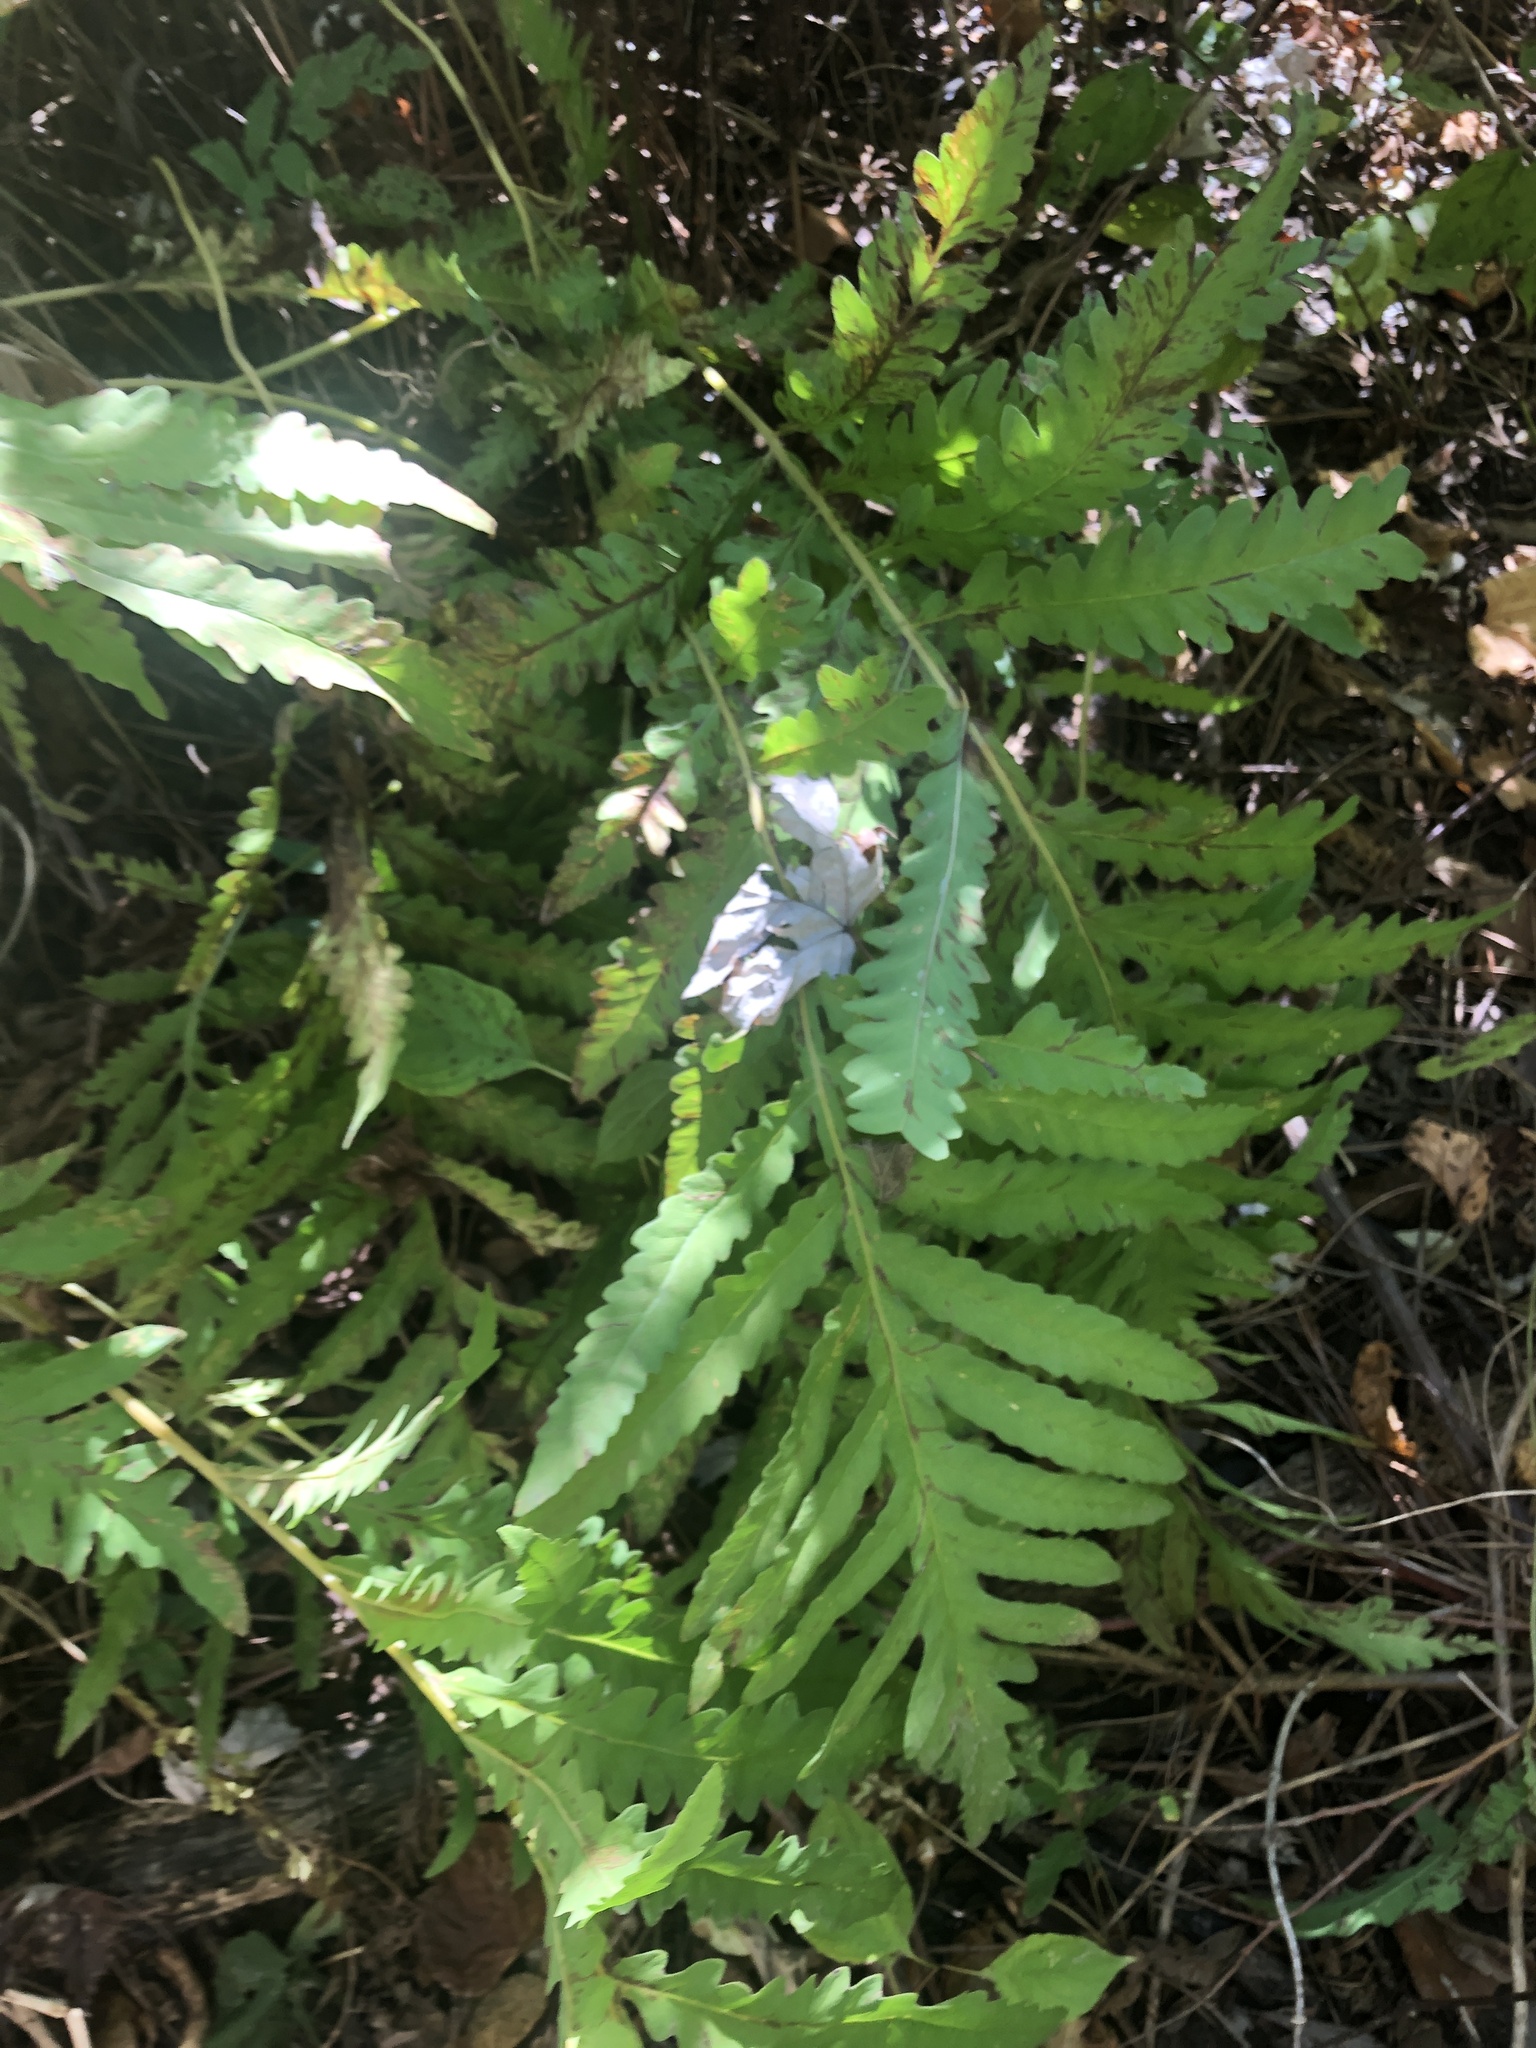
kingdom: Plantae
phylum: Tracheophyta
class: Polypodiopsida
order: Polypodiales
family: Onocleaceae
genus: Onoclea
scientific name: Onoclea sensibilis
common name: Sensitive fern
